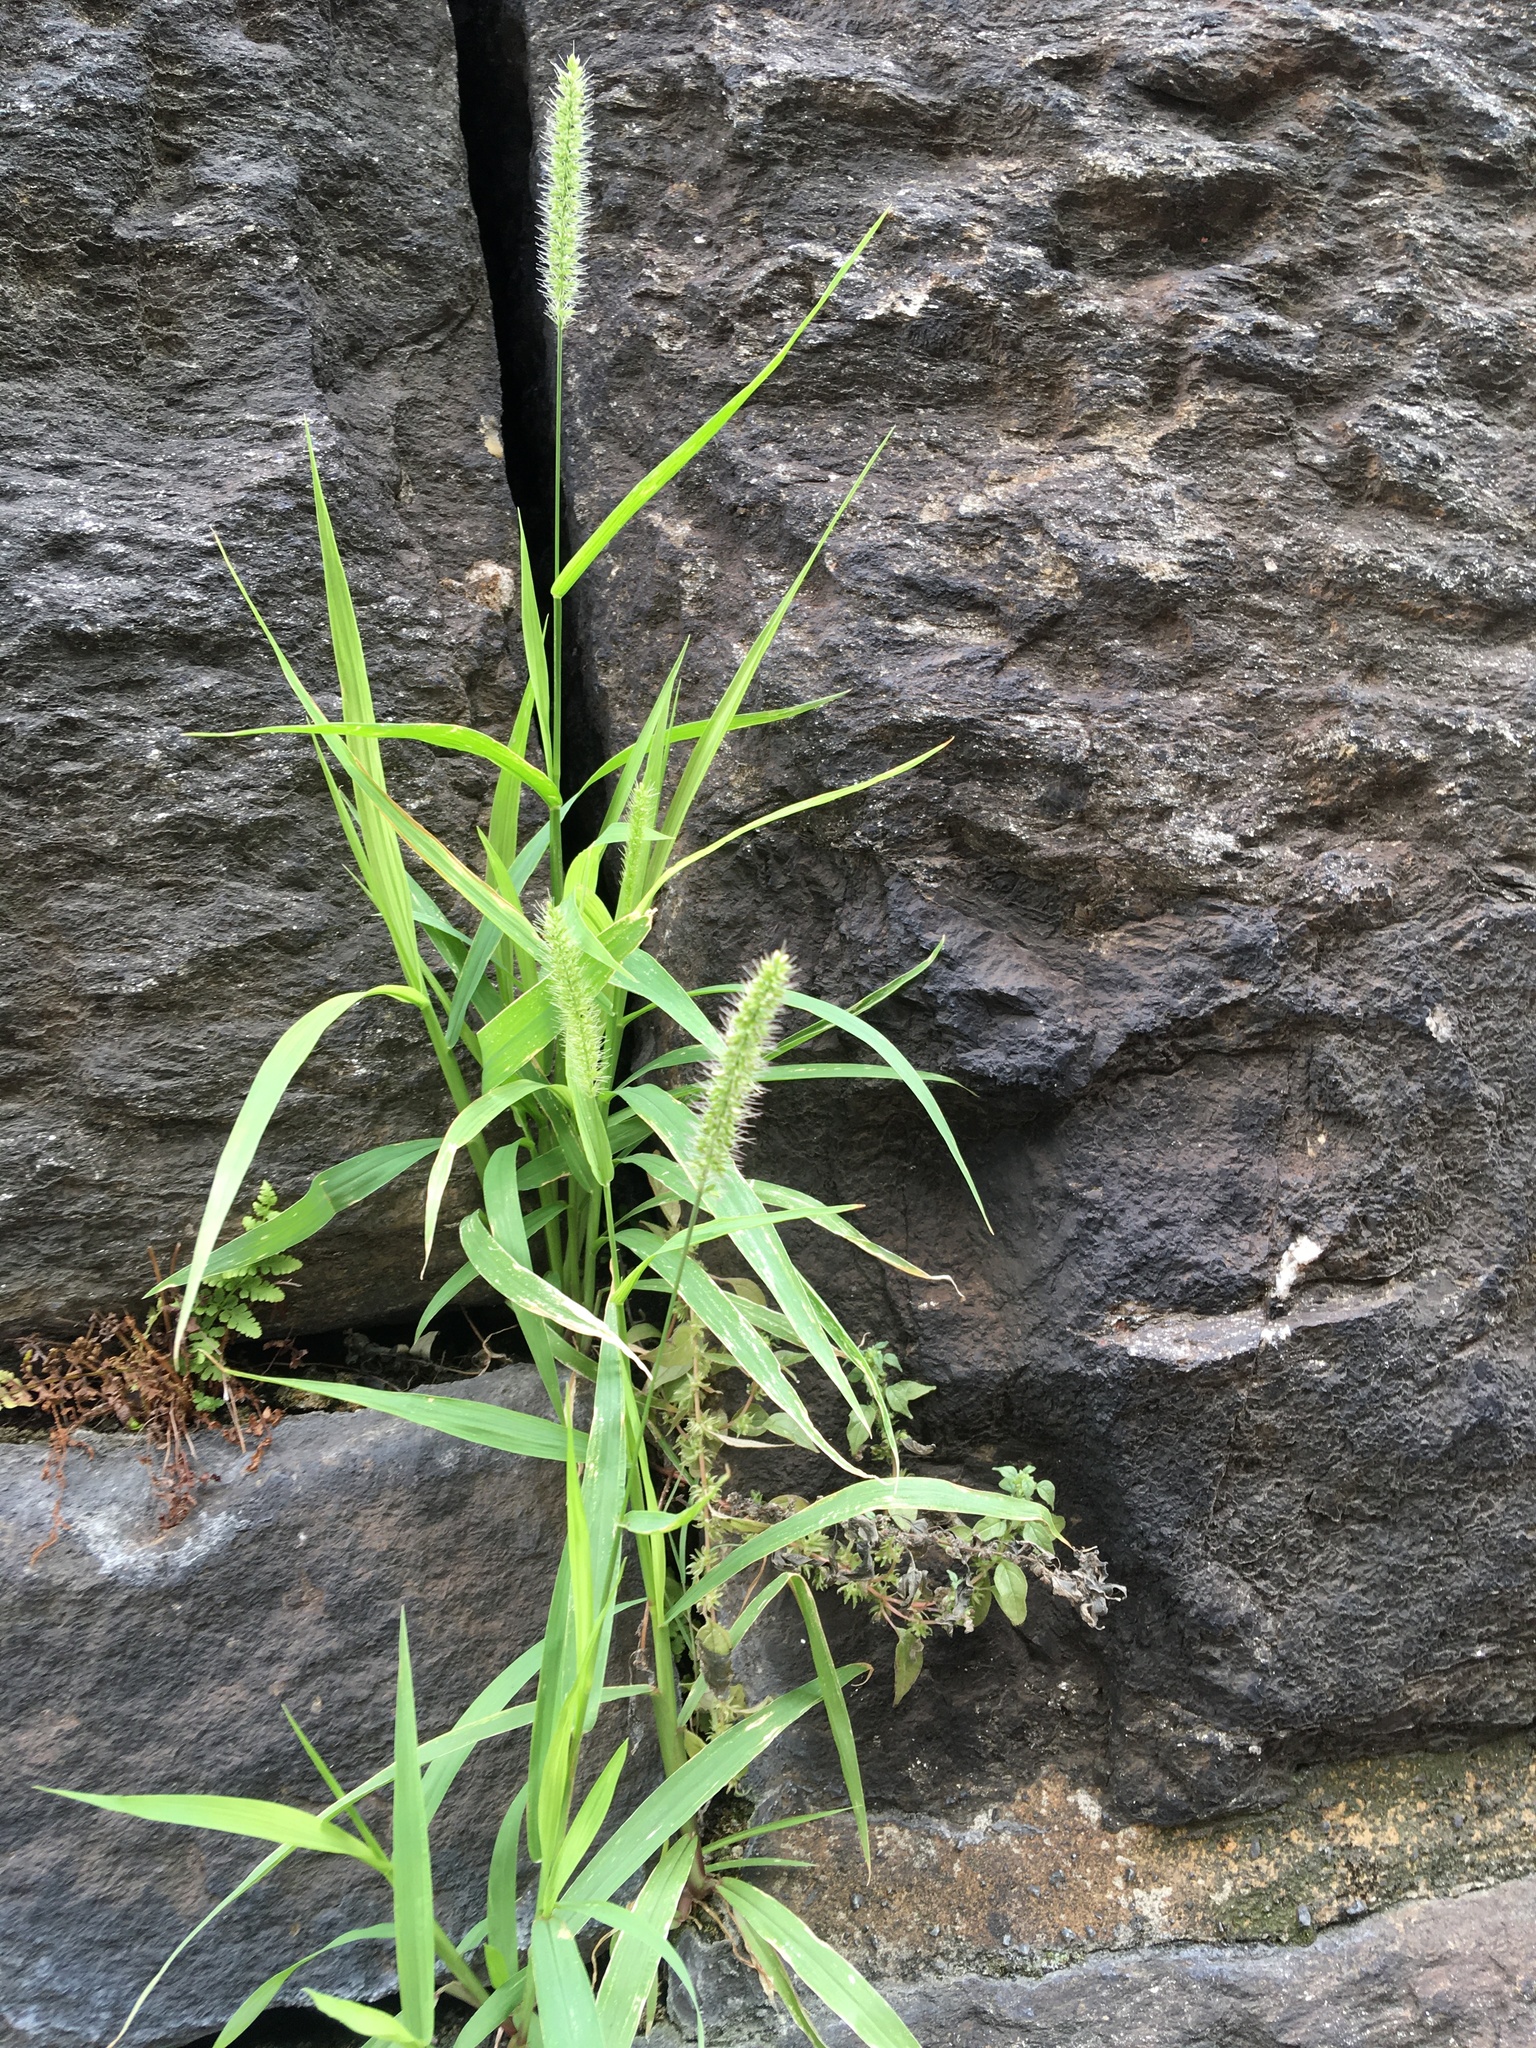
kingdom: Plantae
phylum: Tracheophyta
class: Liliopsida
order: Poales
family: Poaceae
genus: Setaria
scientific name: Setaria verticillata
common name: Hooked bristlegrass
